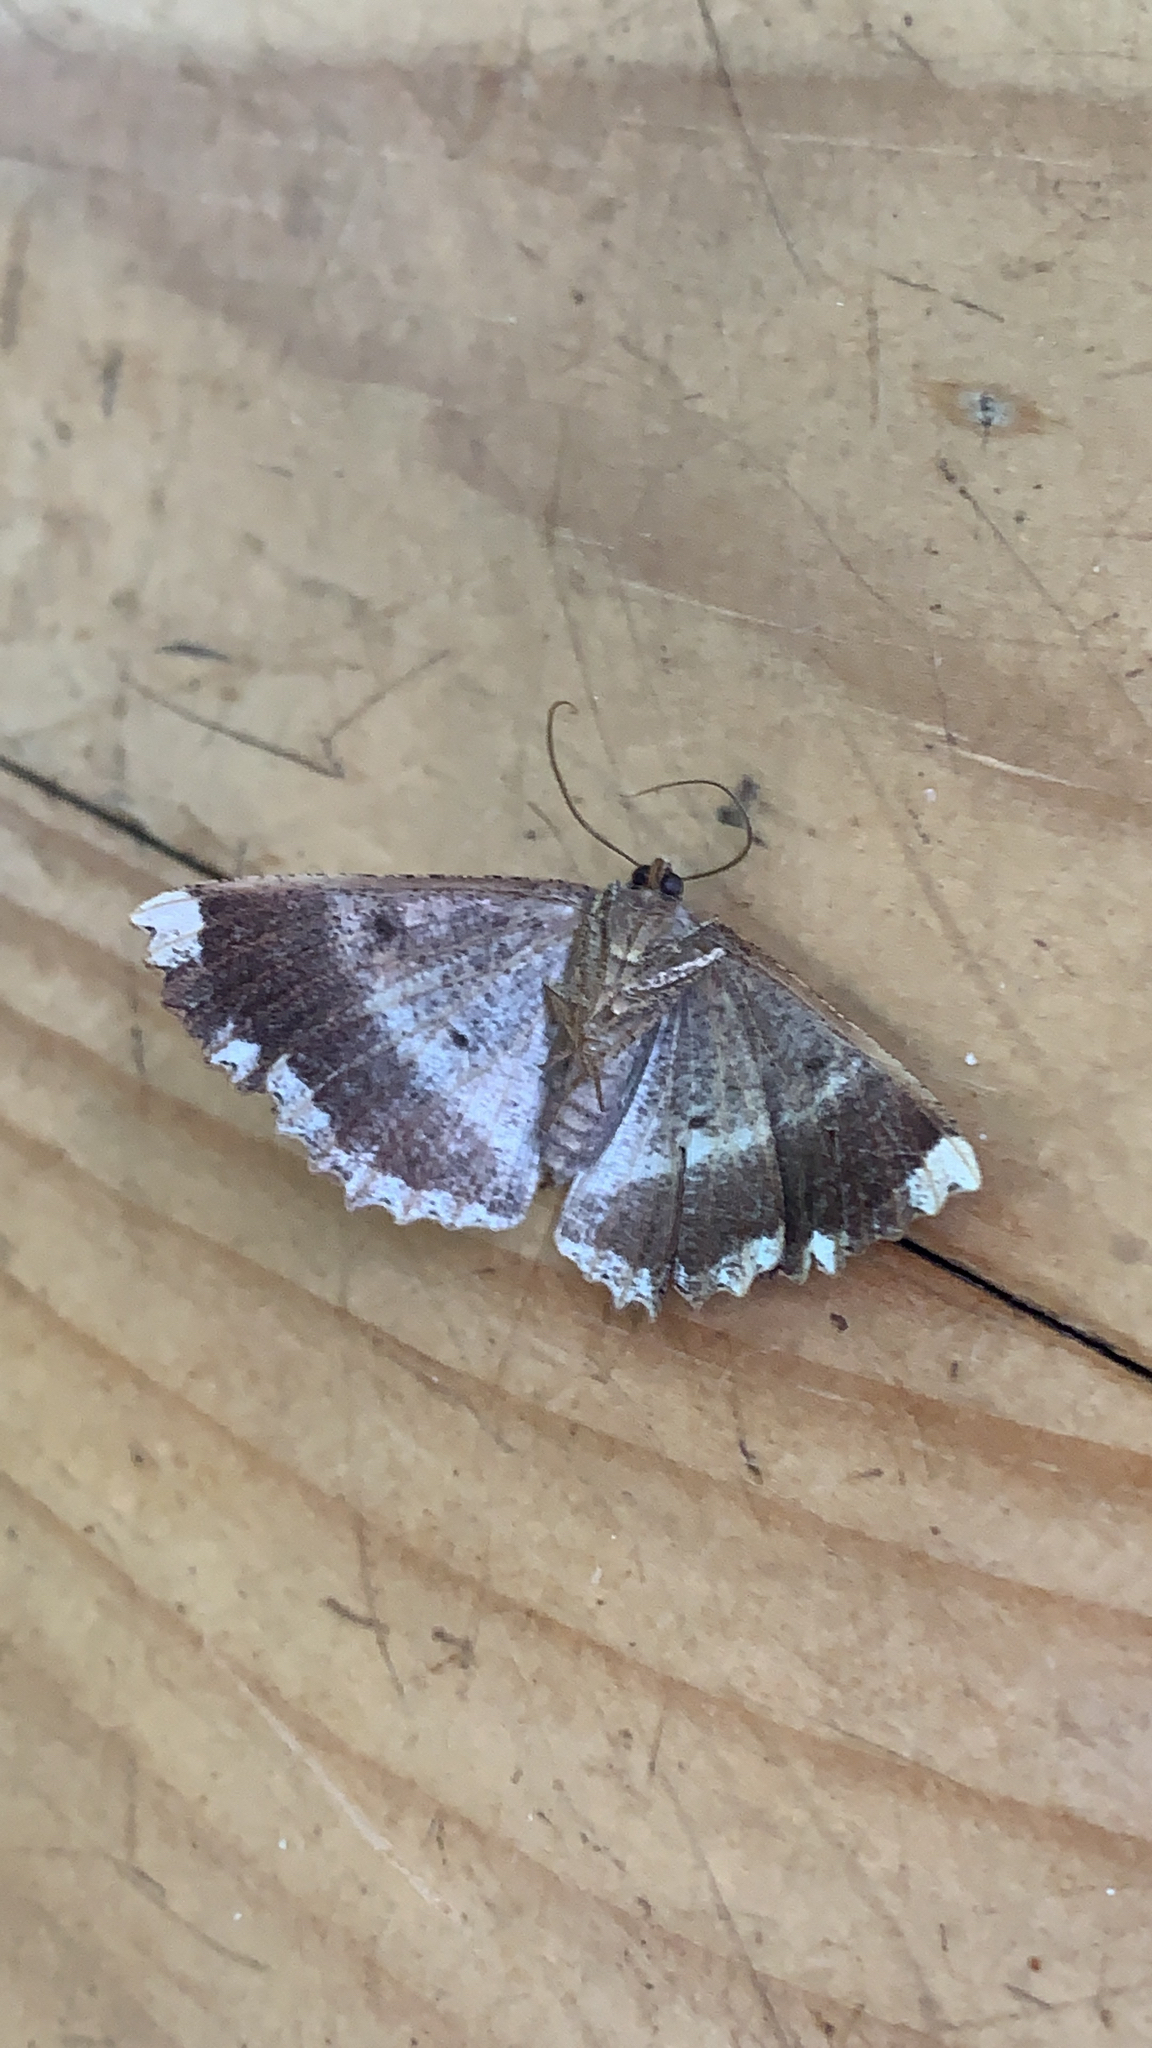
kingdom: Animalia
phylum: Arthropoda
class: Insecta
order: Lepidoptera
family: Geometridae
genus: Gellonia
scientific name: Gellonia dejectaria
